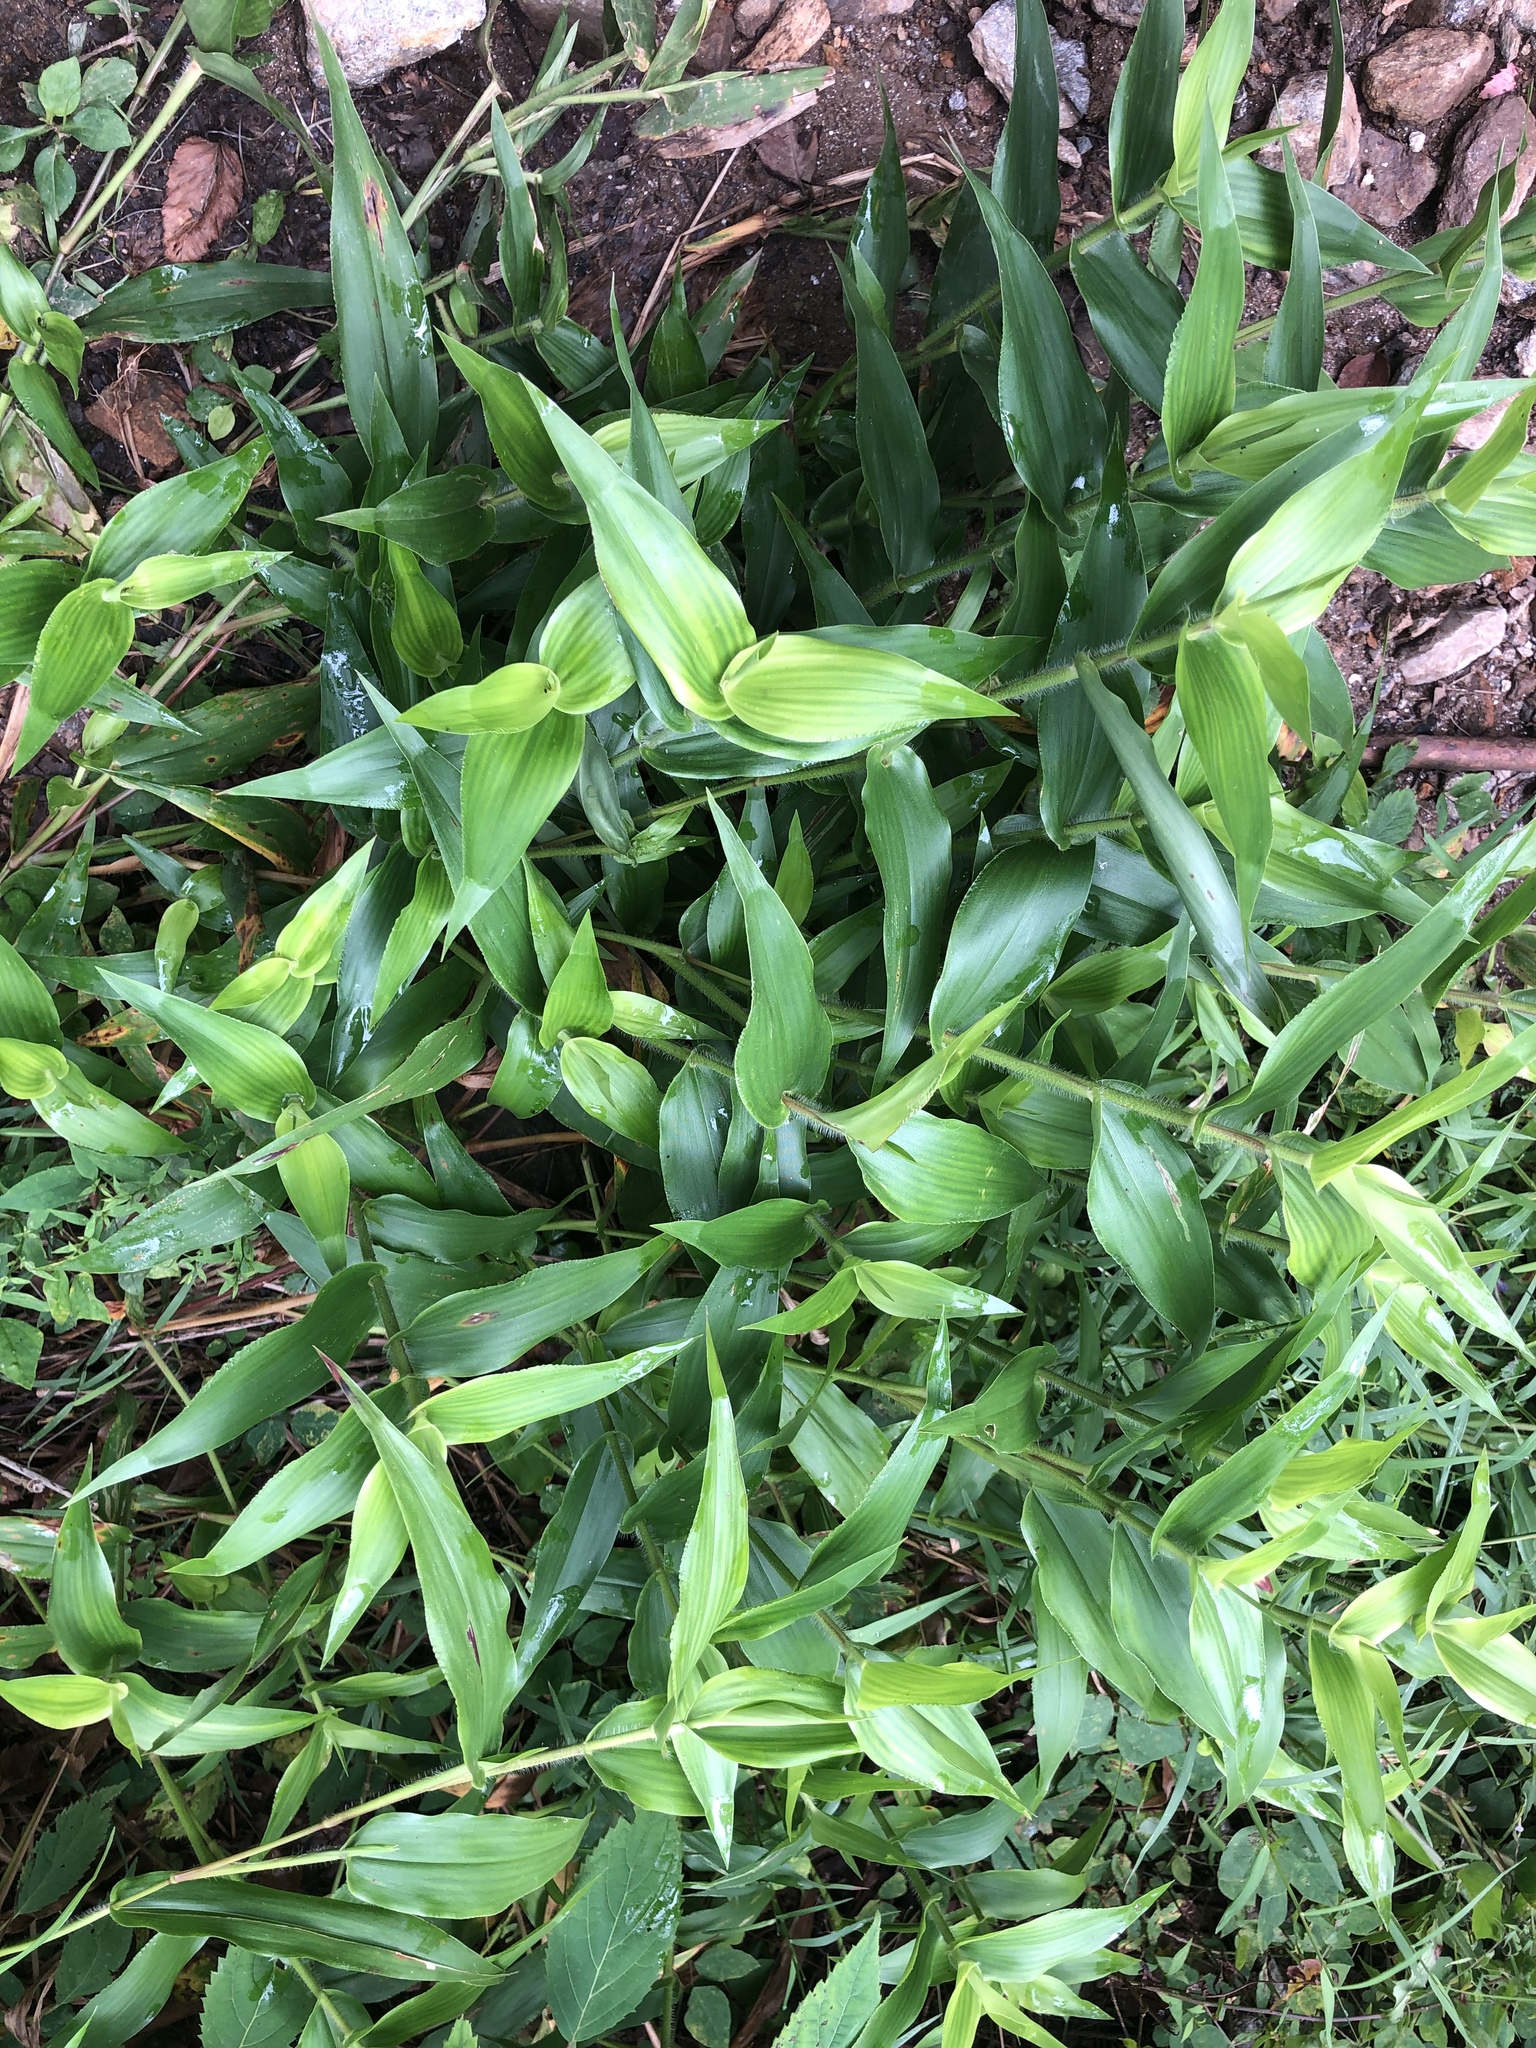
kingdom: Plantae
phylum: Tracheophyta
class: Liliopsida
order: Poales
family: Poaceae
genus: Dichanthelium
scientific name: Dichanthelium clandestinum
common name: Deer-tongue grass
